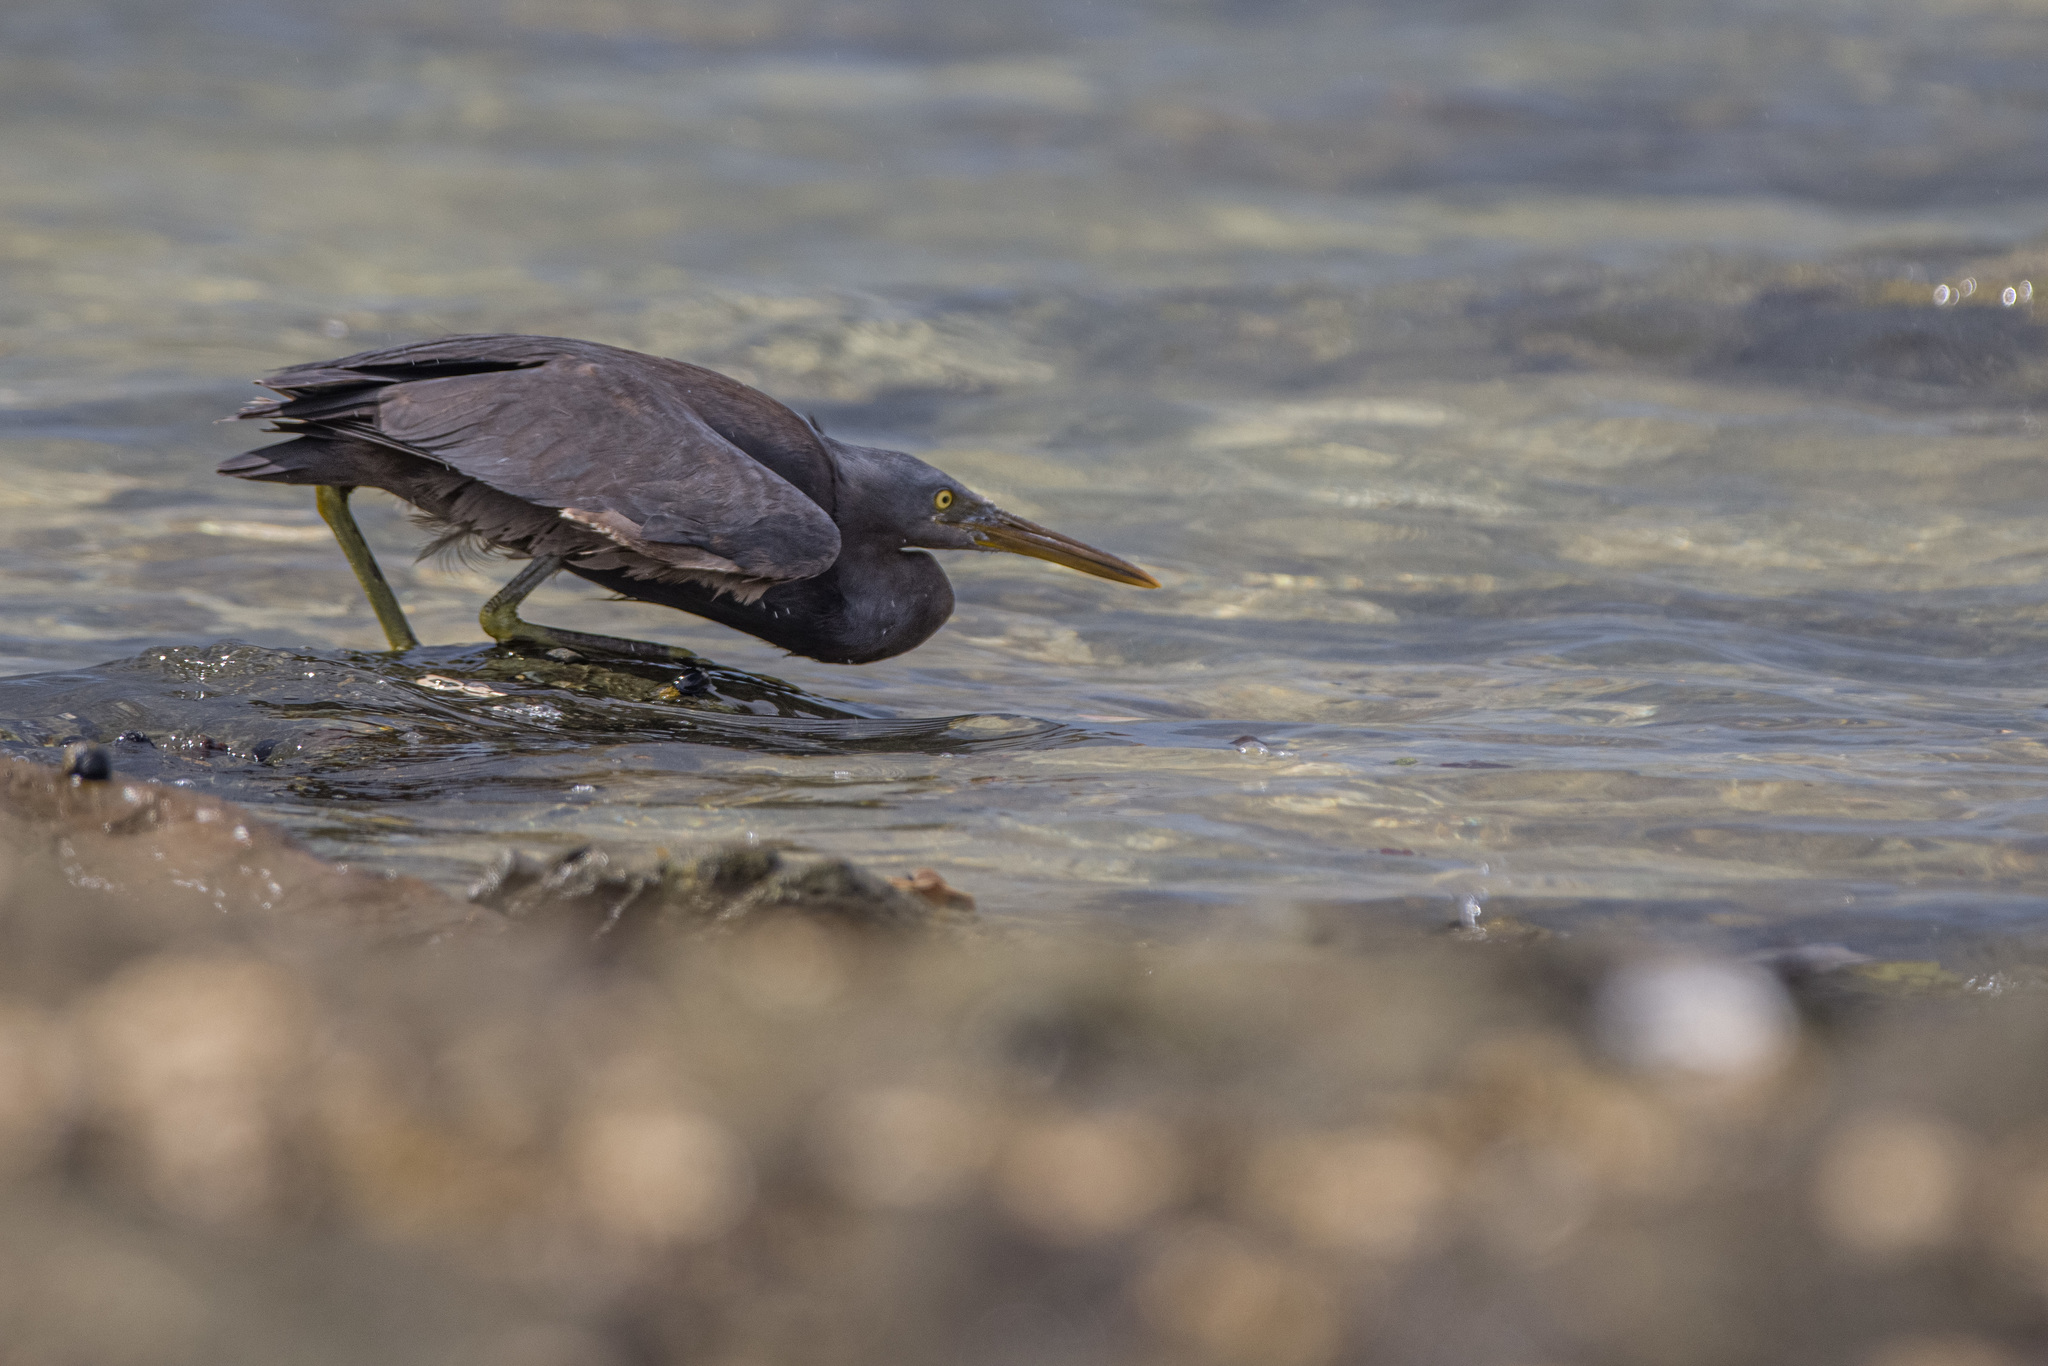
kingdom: Animalia
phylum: Chordata
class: Aves
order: Pelecaniformes
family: Ardeidae
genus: Egretta
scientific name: Egretta sacra
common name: Pacific reef heron
